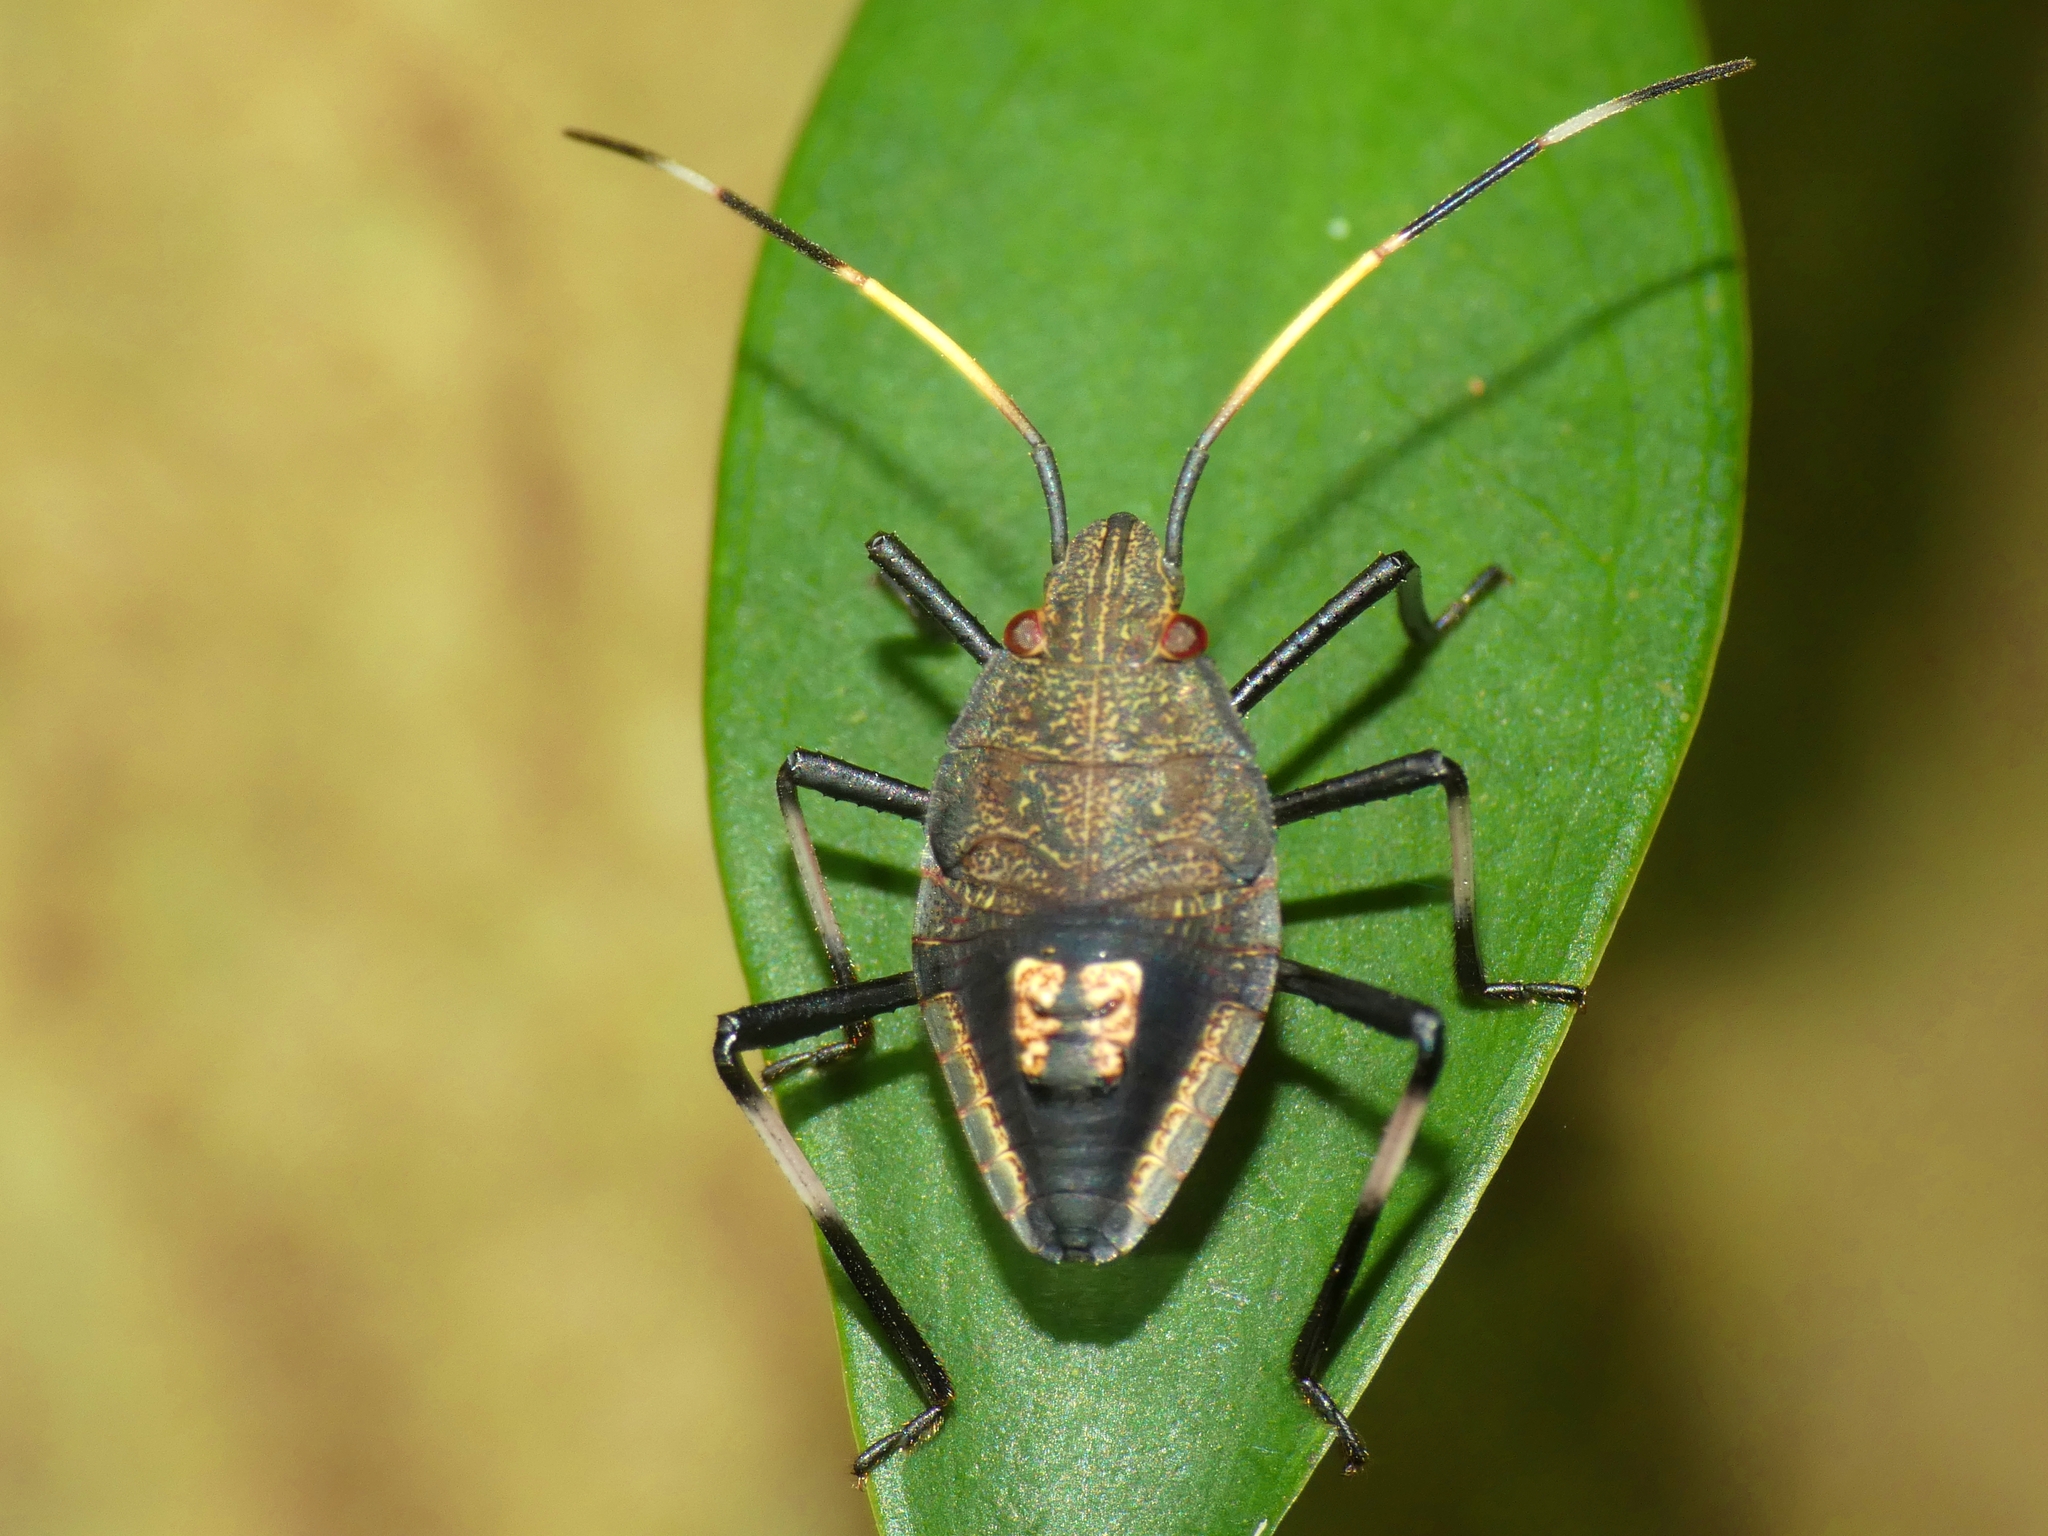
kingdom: Animalia
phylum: Arthropoda
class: Insecta
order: Hemiptera
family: Pentatomidae
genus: Poecilometis
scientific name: Poecilometis
